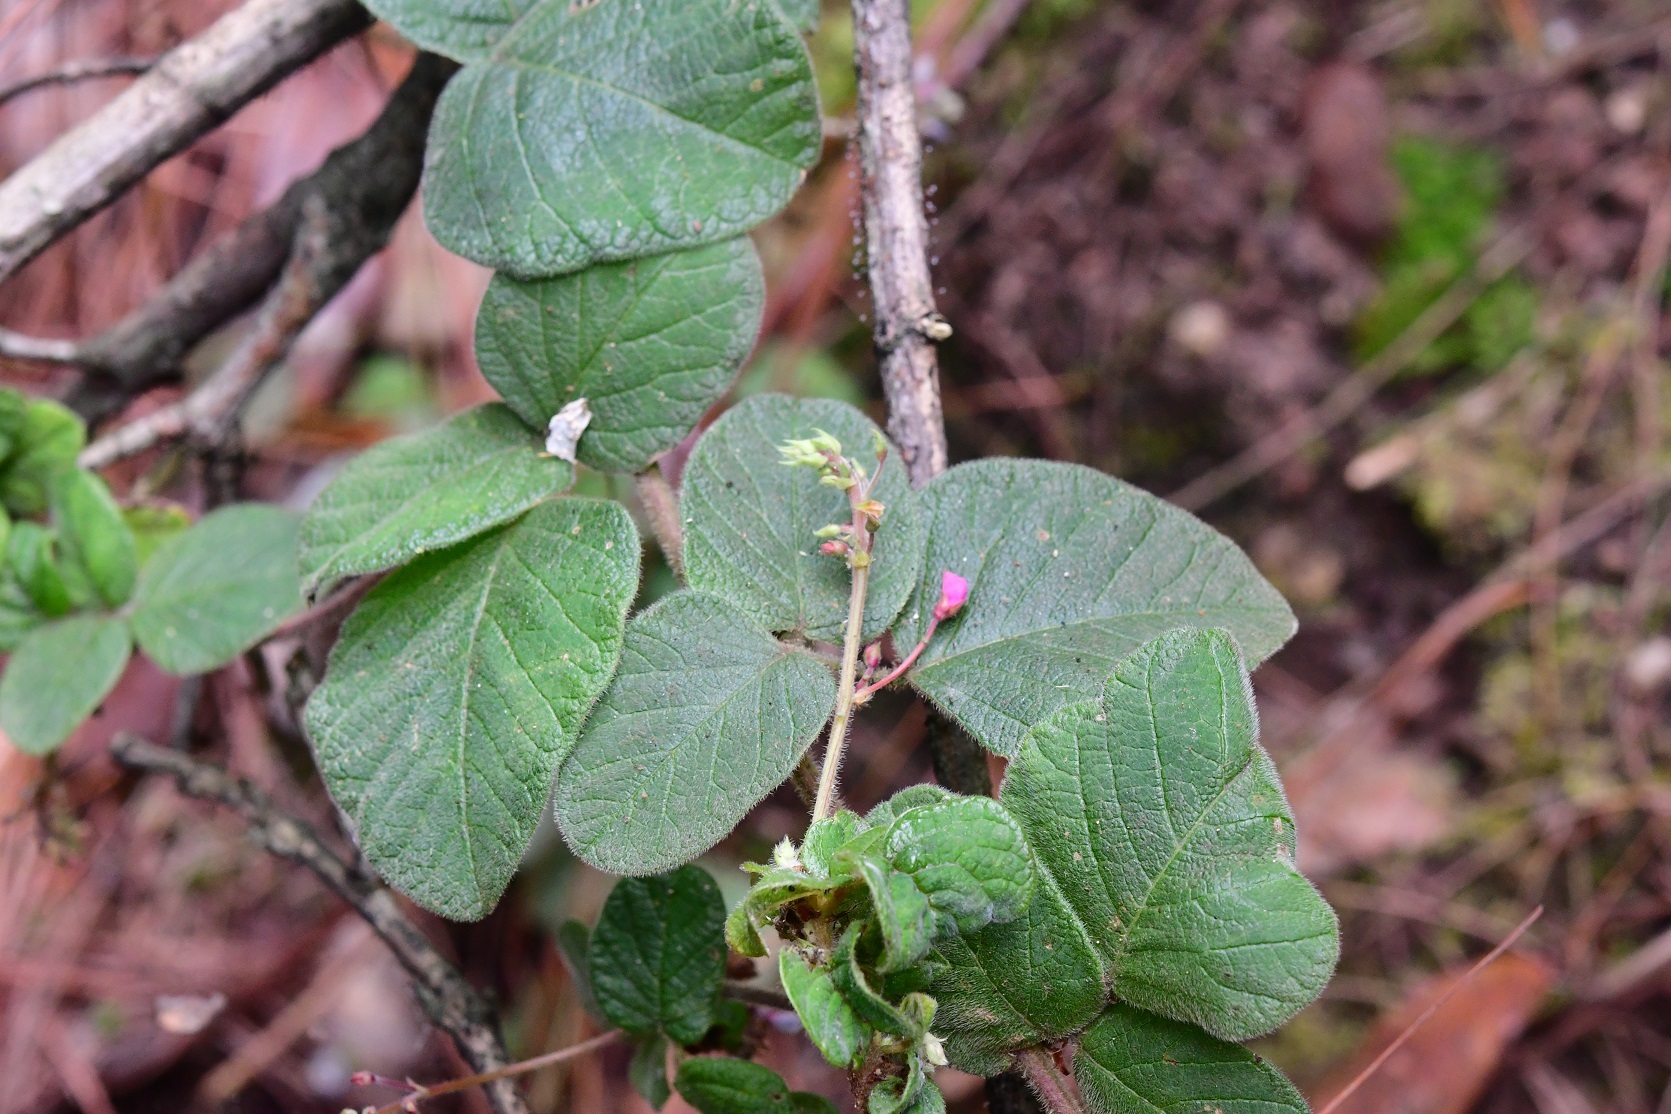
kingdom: Plantae
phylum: Tracheophyta
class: Magnoliopsida
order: Fabales
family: Fabaceae
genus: Desmodium
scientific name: Desmodium molliculum
